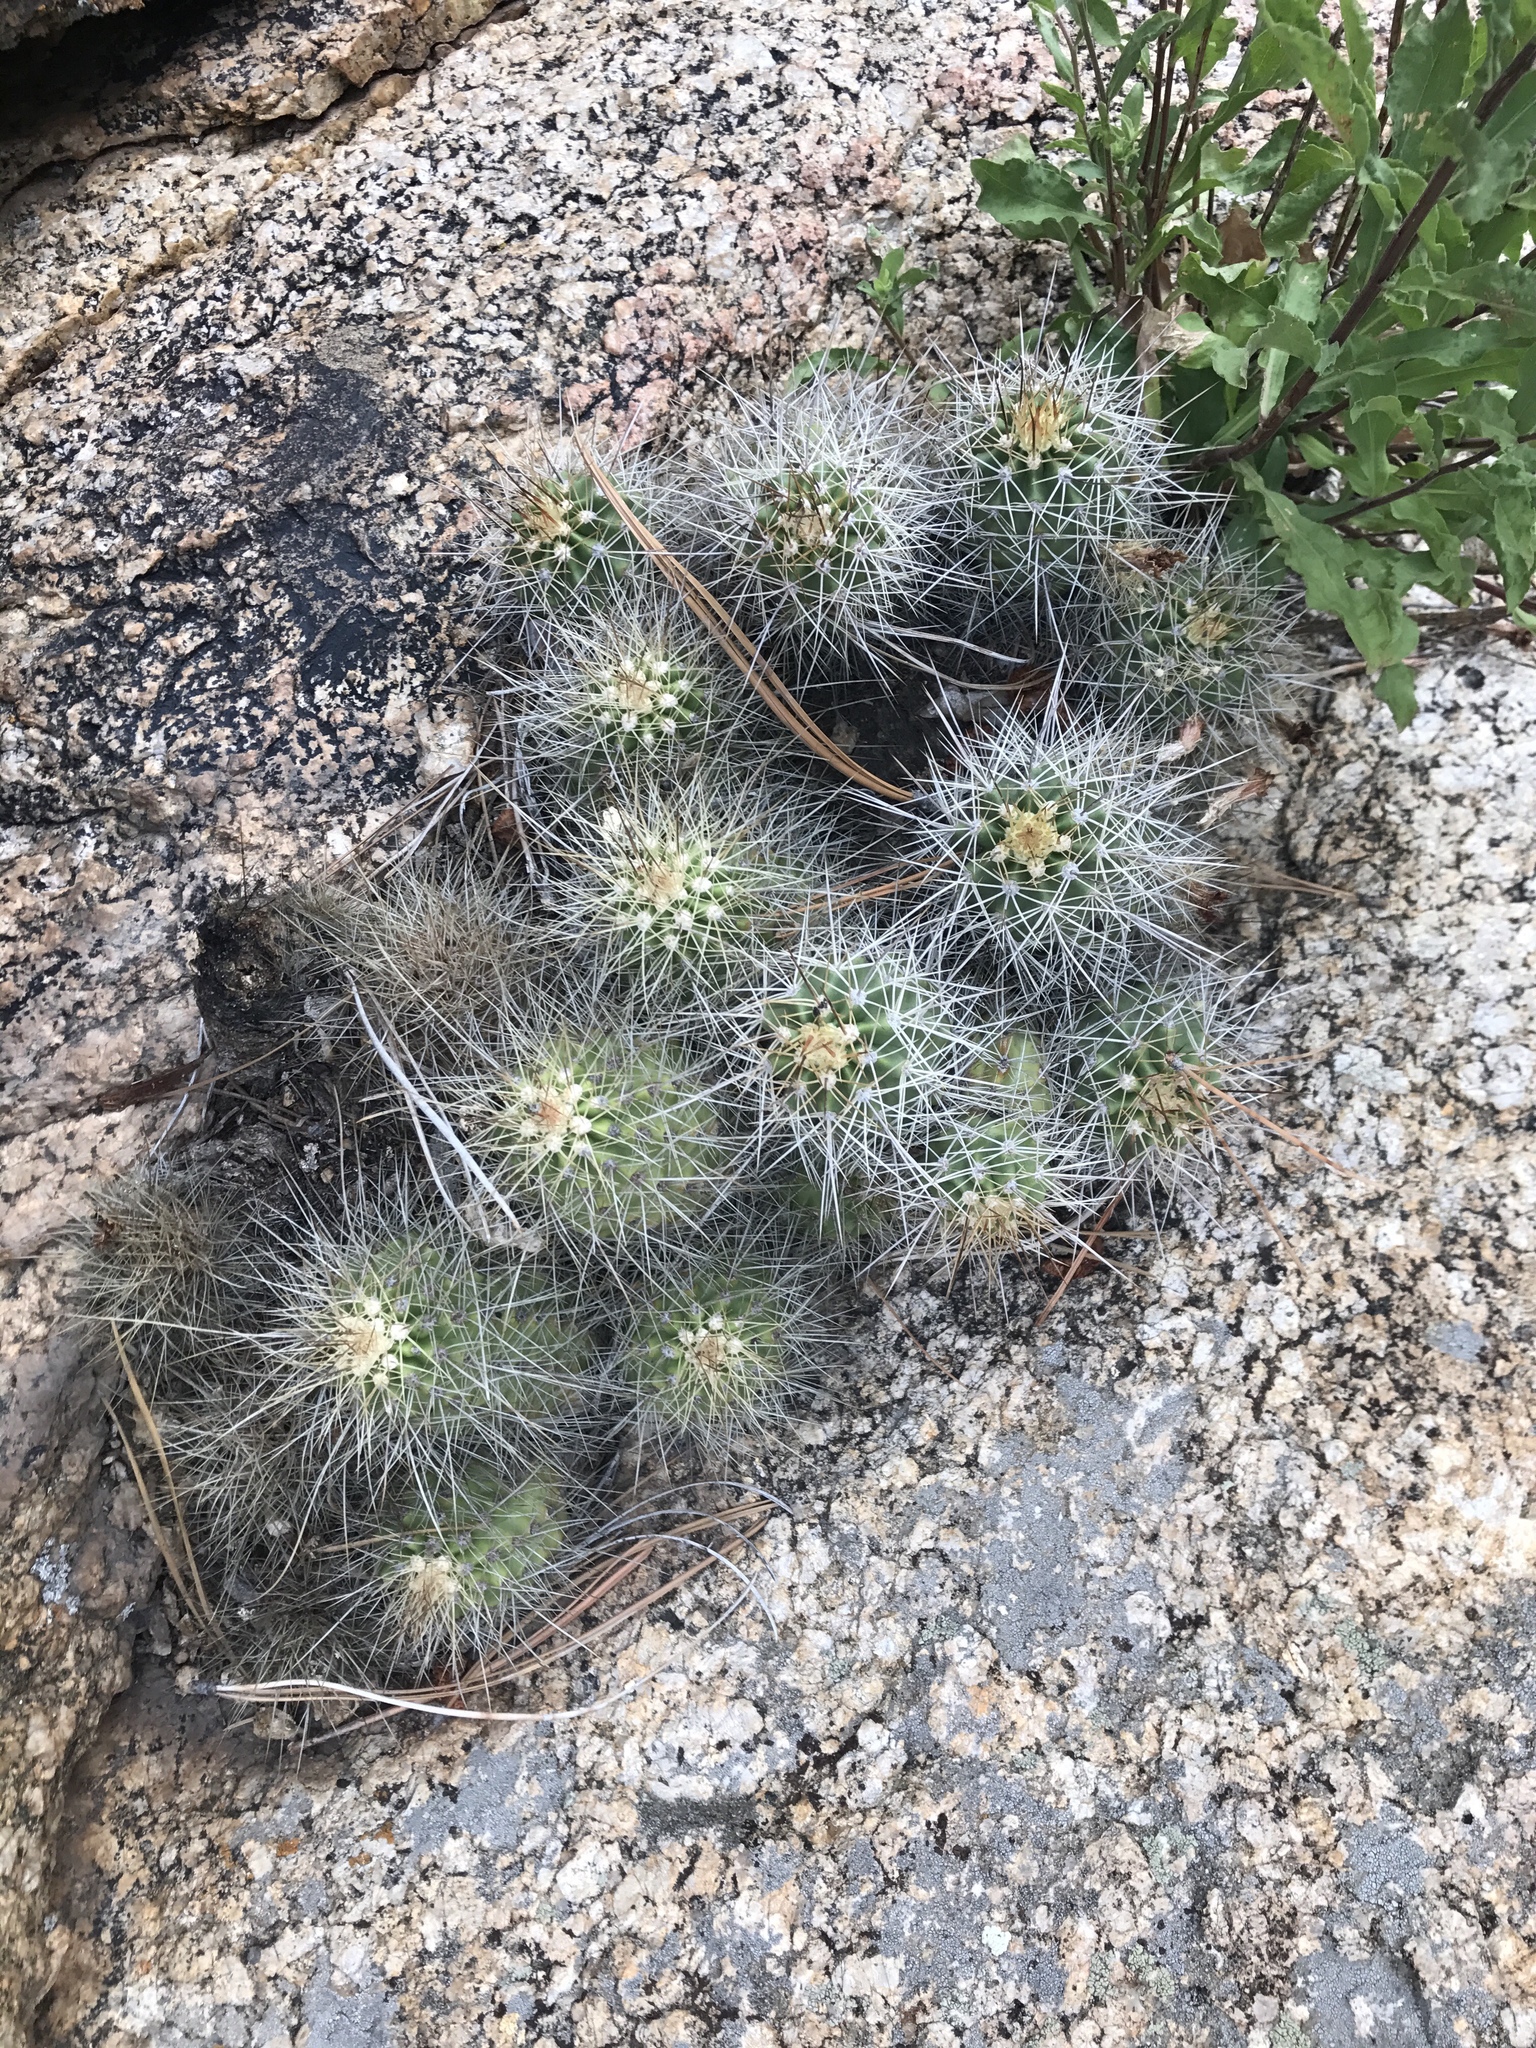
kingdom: Plantae
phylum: Tracheophyta
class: Magnoliopsida
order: Caryophyllales
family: Cactaceae
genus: Echinocereus
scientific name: Echinocereus bakeri
